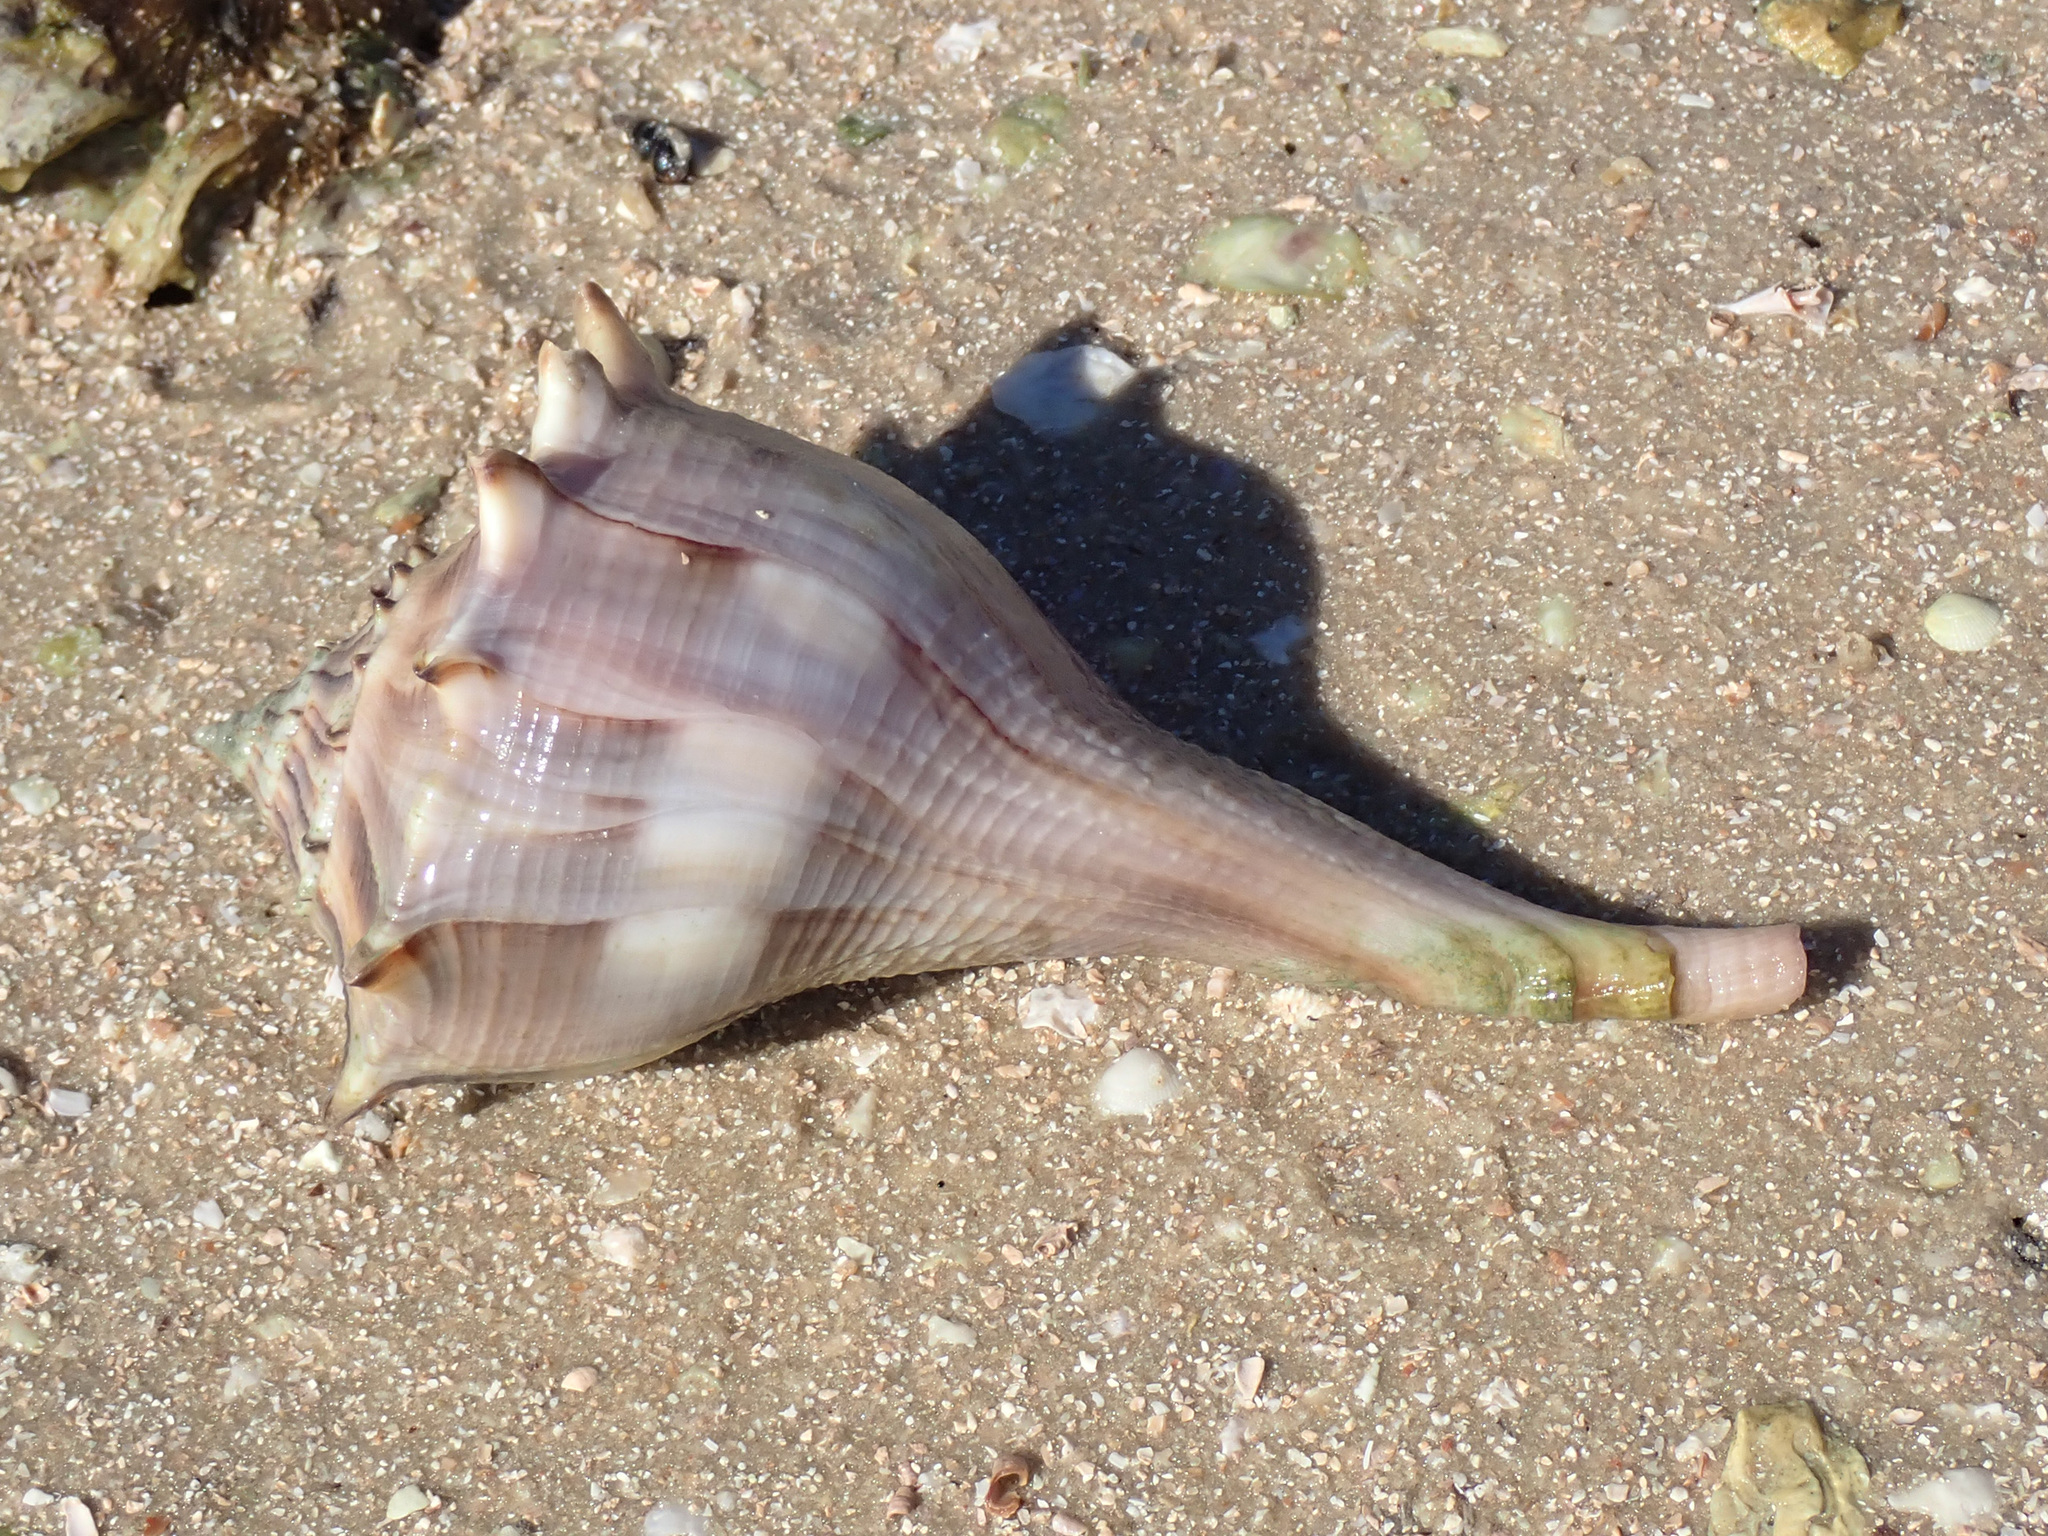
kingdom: Animalia
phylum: Mollusca
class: Gastropoda
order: Neogastropoda
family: Busyconidae
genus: Sinistrofulgur
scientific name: Sinistrofulgur sinistrum
